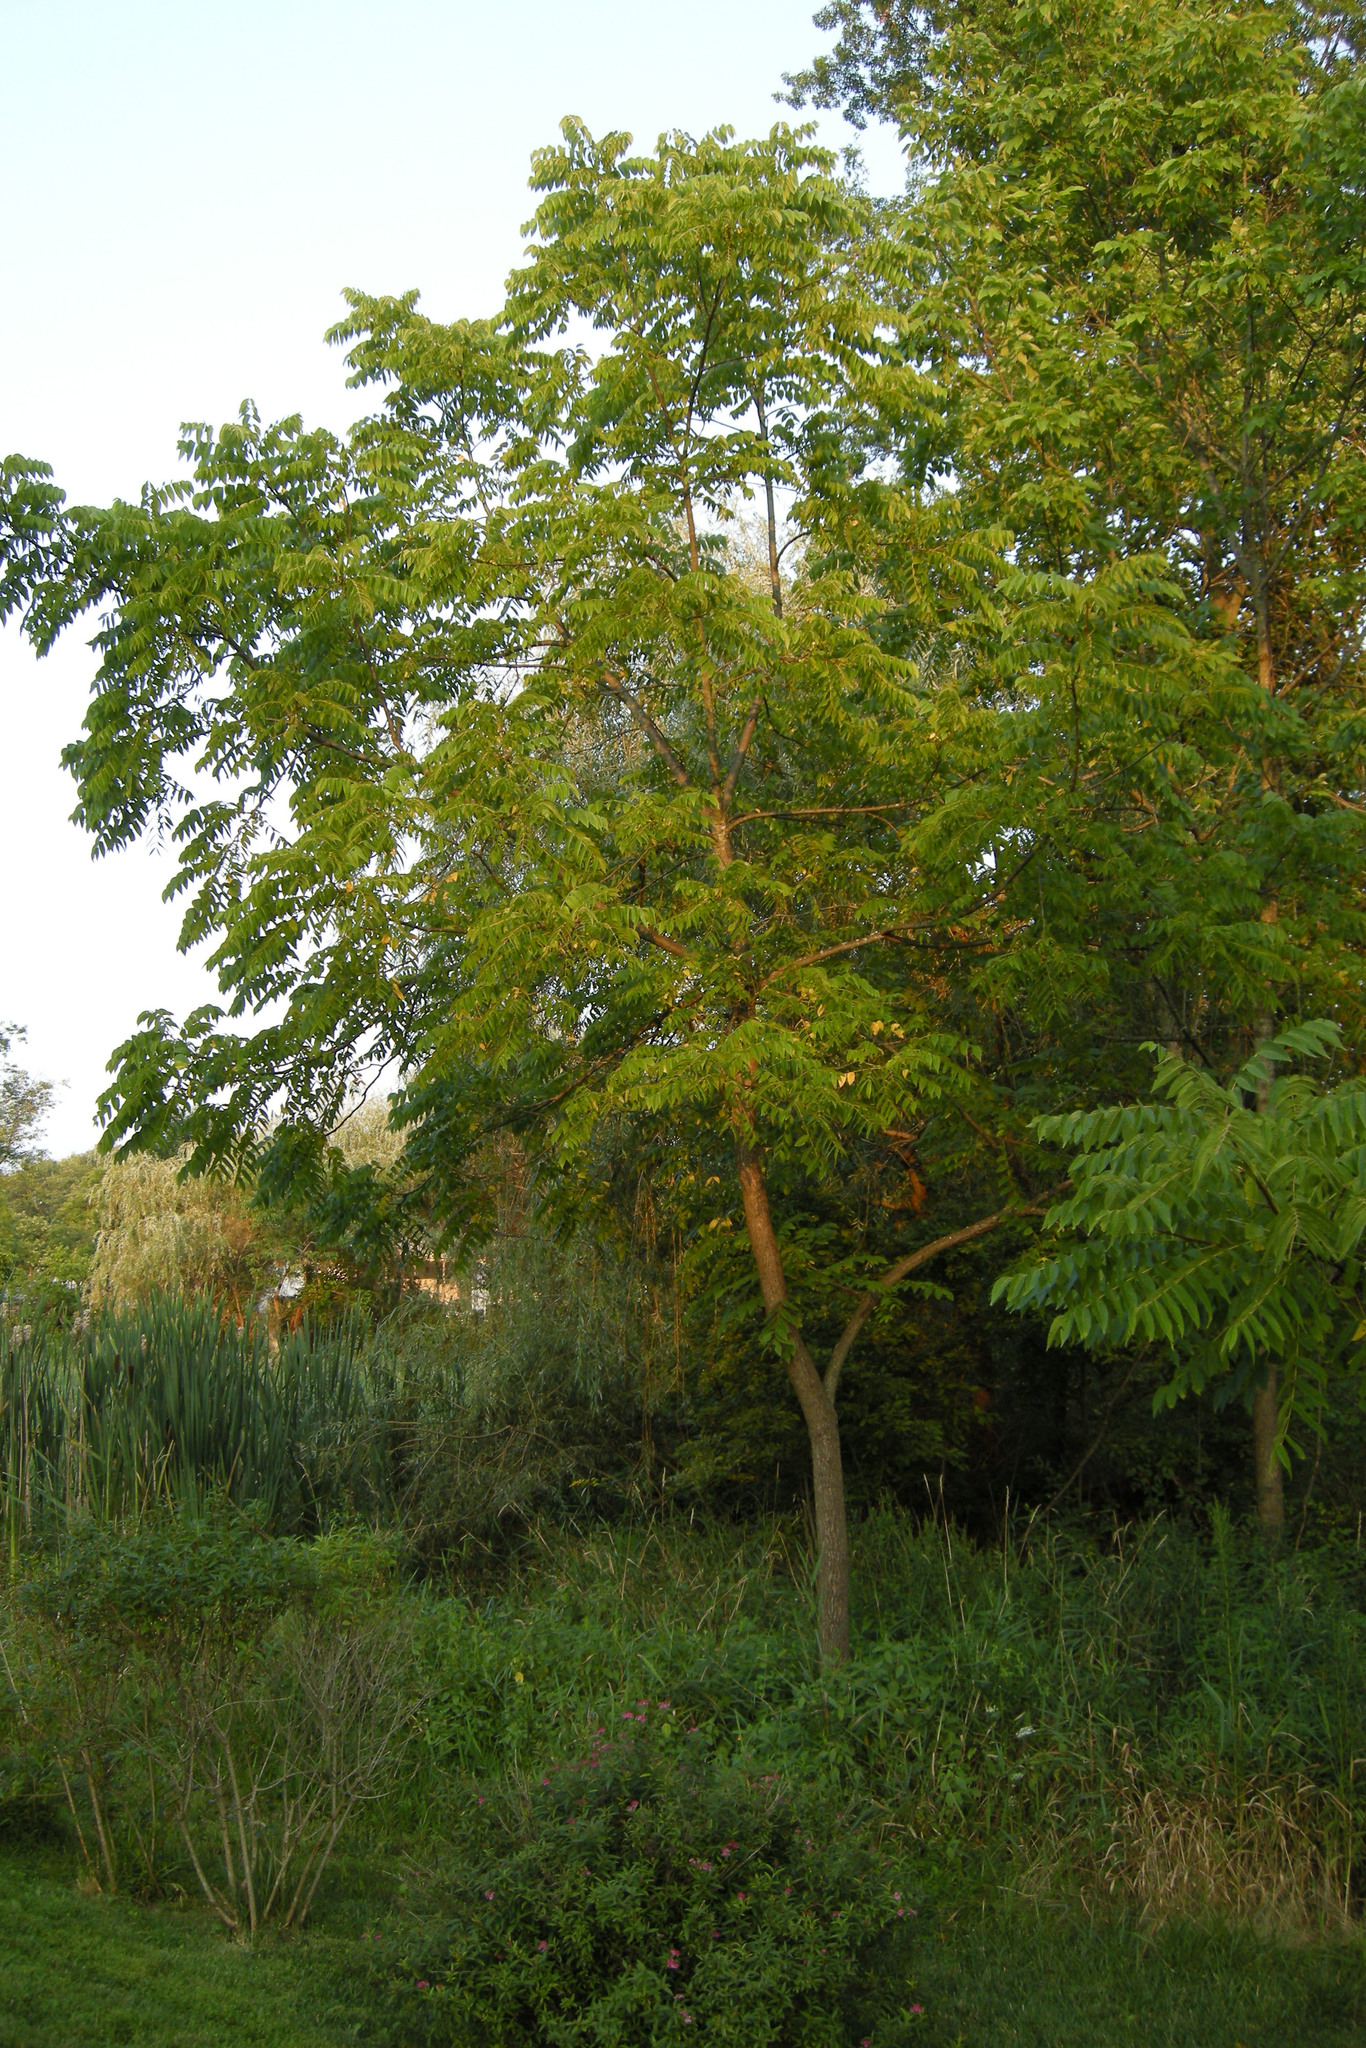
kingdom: Plantae
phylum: Tracheophyta
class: Magnoliopsida
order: Fagales
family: Juglandaceae
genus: Juglans
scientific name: Juglans nigra
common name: Black walnut
